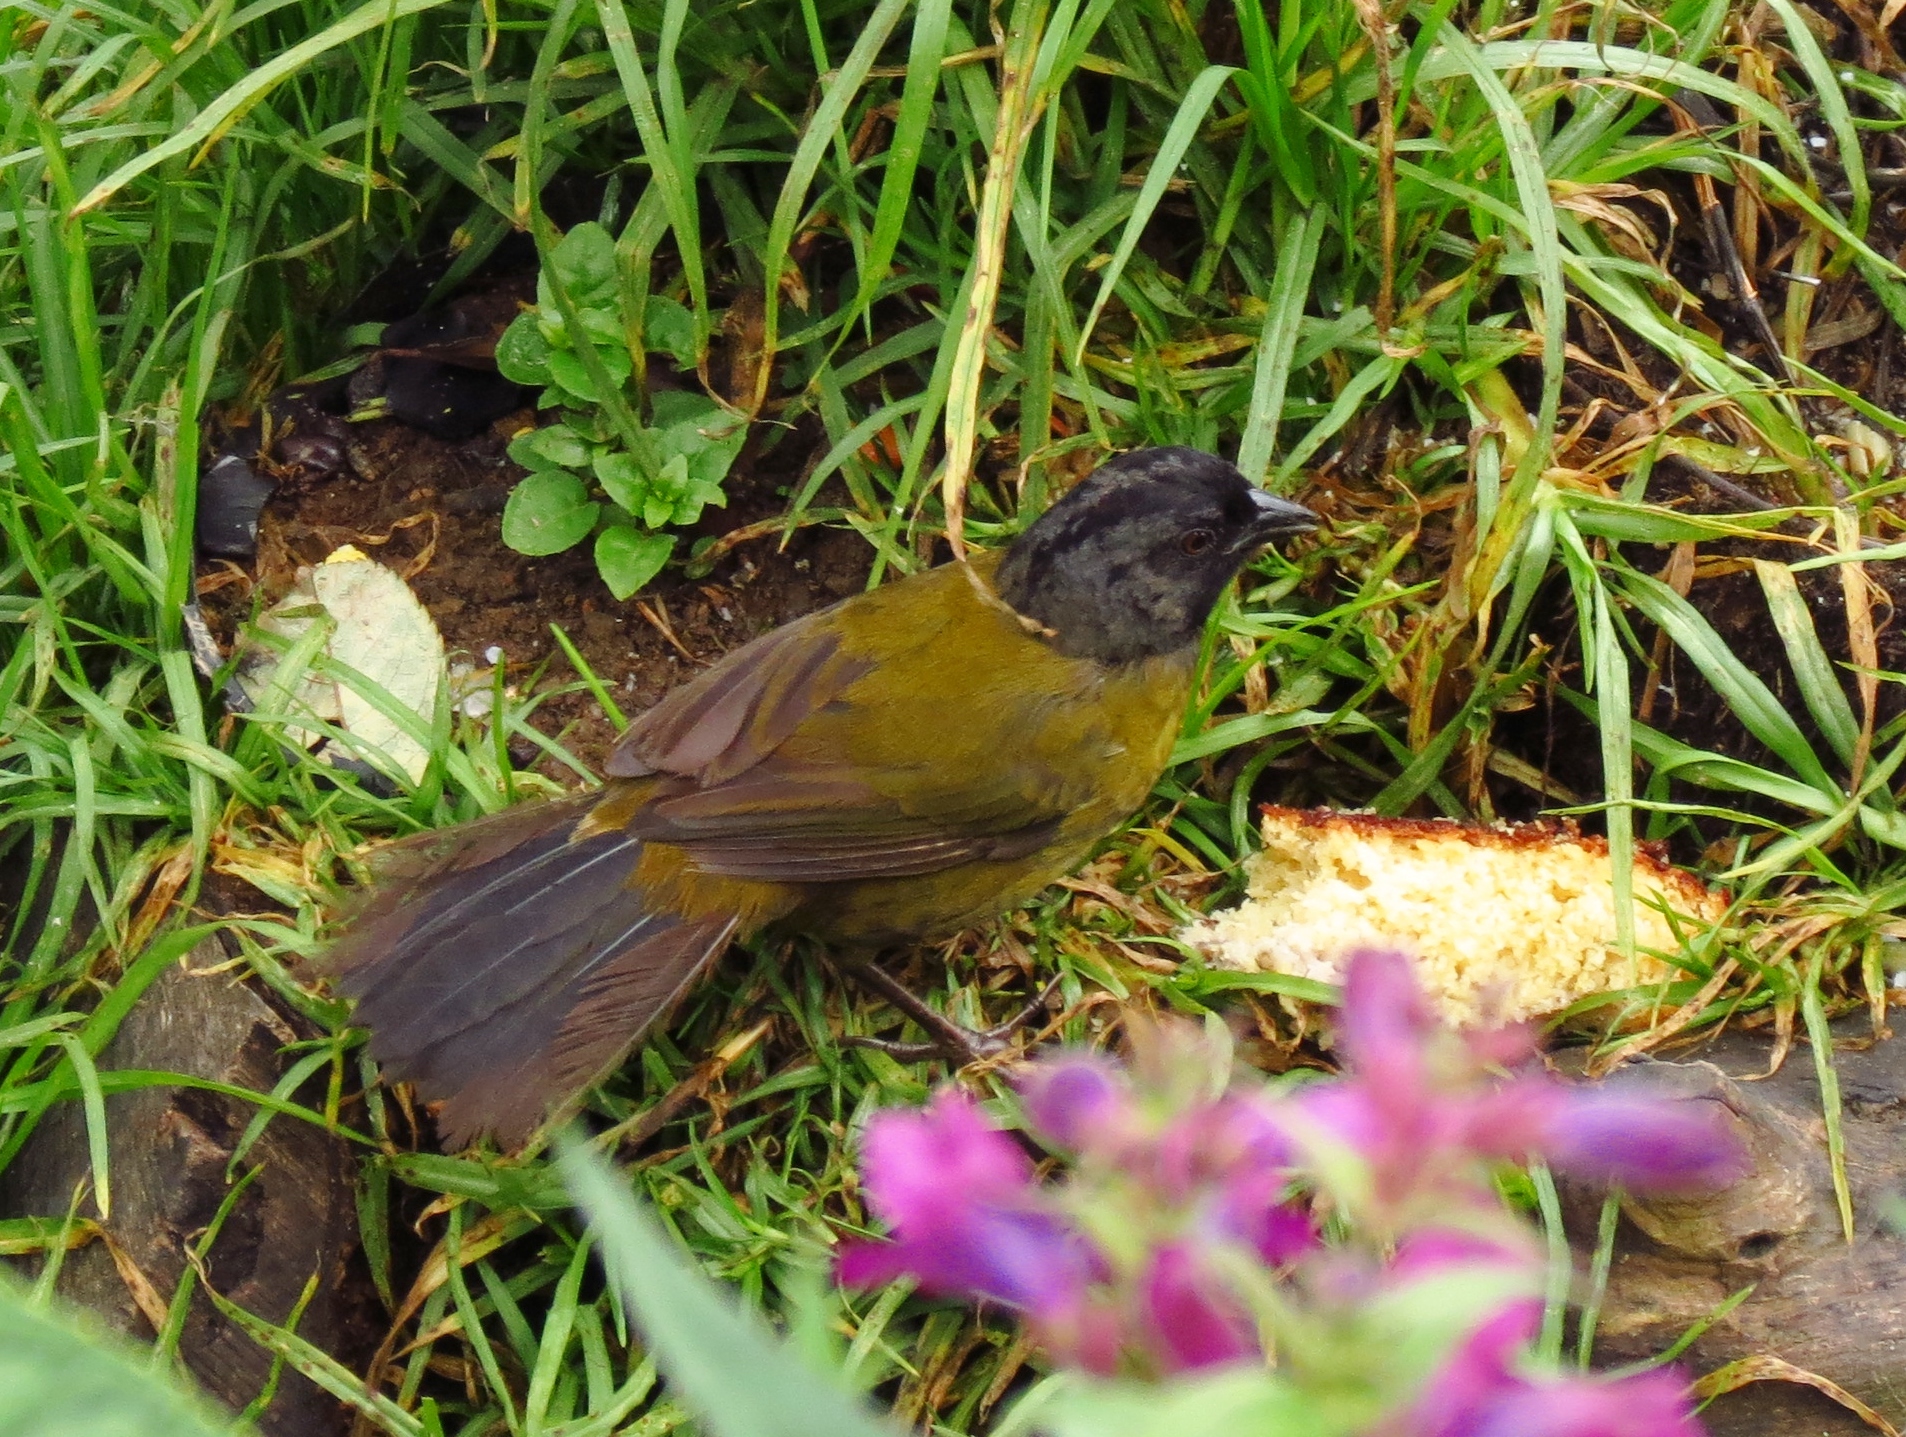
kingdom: Animalia
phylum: Chordata
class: Aves
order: Passeriformes
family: Passerellidae
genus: Pezopetes
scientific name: Pezopetes capitalis
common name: Large-footed finch
